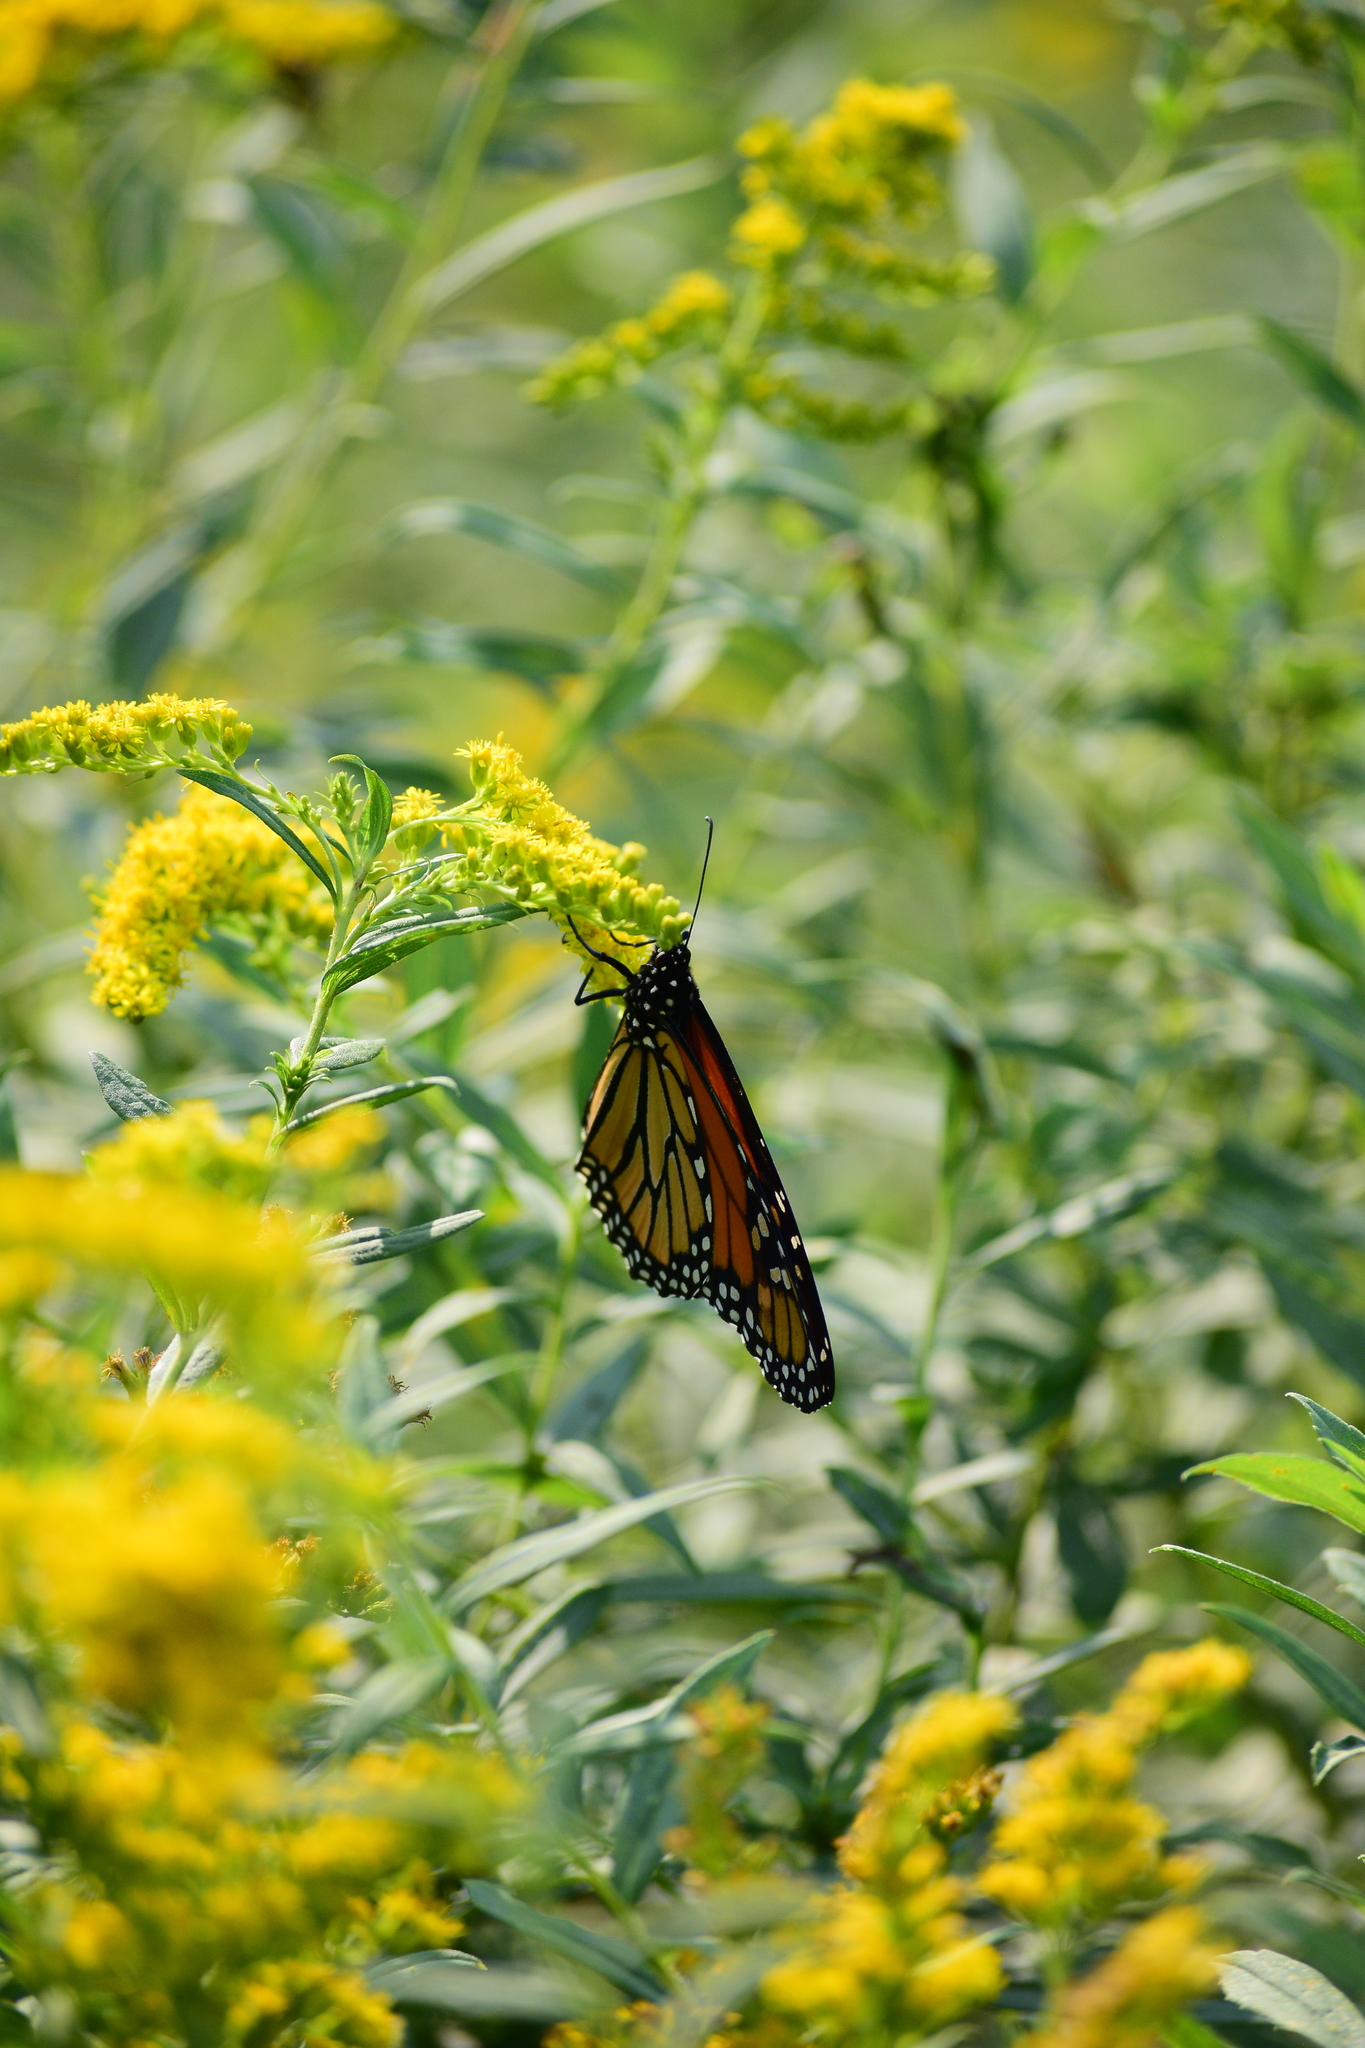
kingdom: Animalia
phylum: Arthropoda
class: Insecta
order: Lepidoptera
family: Nymphalidae
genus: Danaus
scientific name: Danaus plexippus
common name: Monarch
